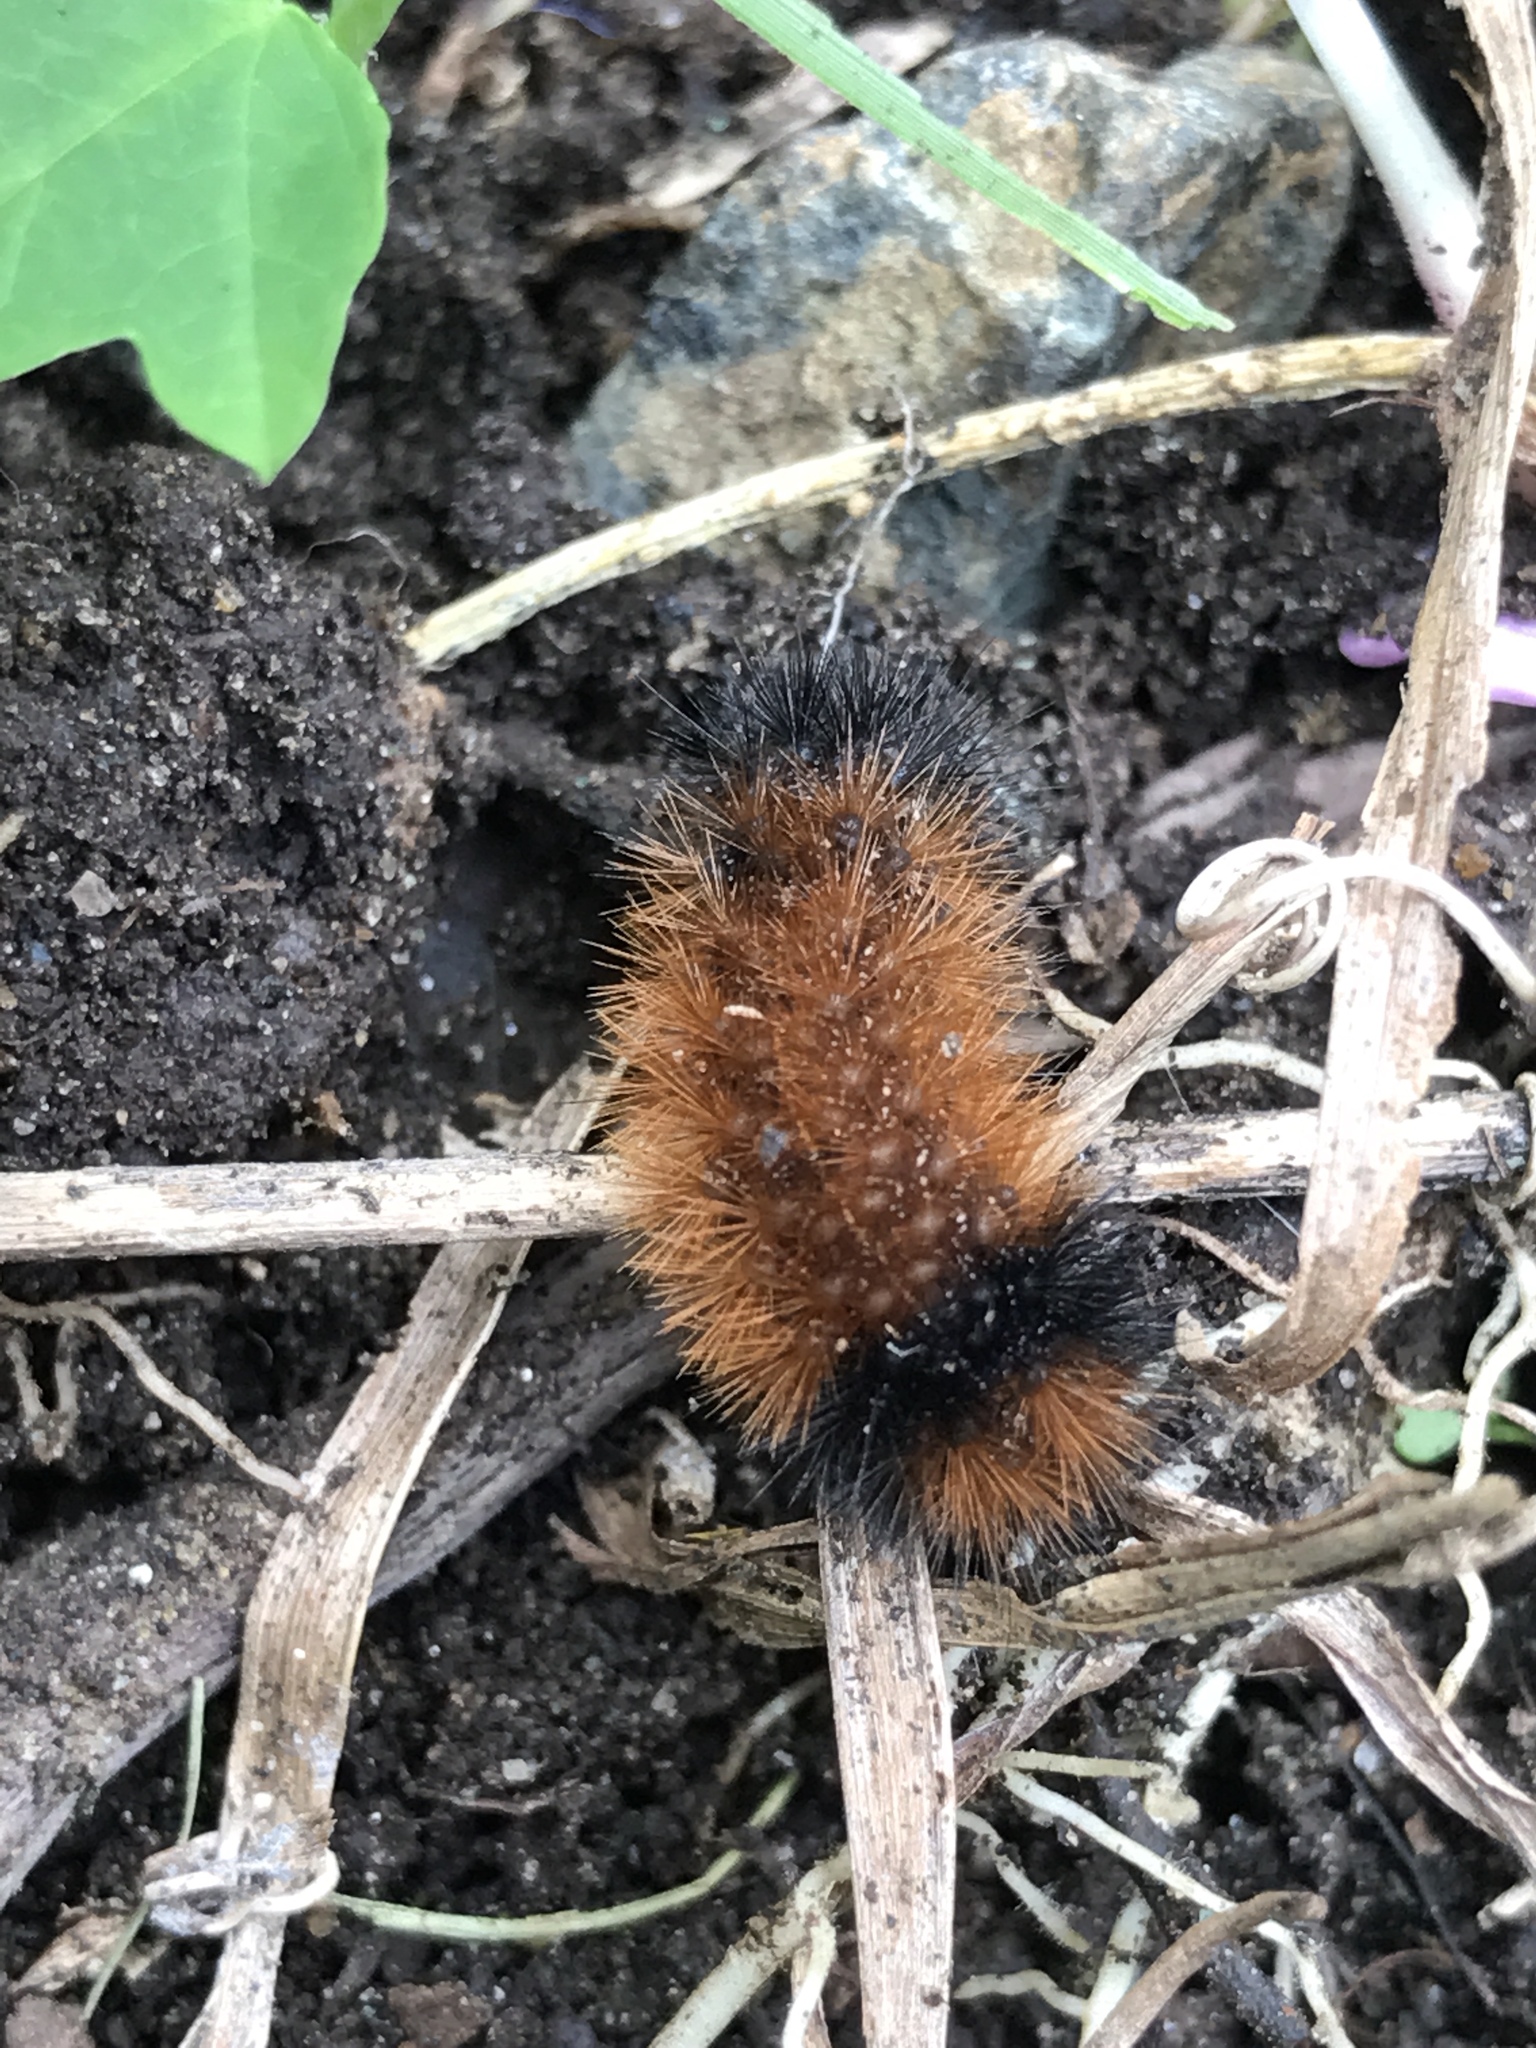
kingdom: Animalia
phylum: Arthropoda
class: Insecta
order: Lepidoptera
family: Erebidae
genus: Pyrrharctia
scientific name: Pyrrharctia isabella
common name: Isabella tiger moth
